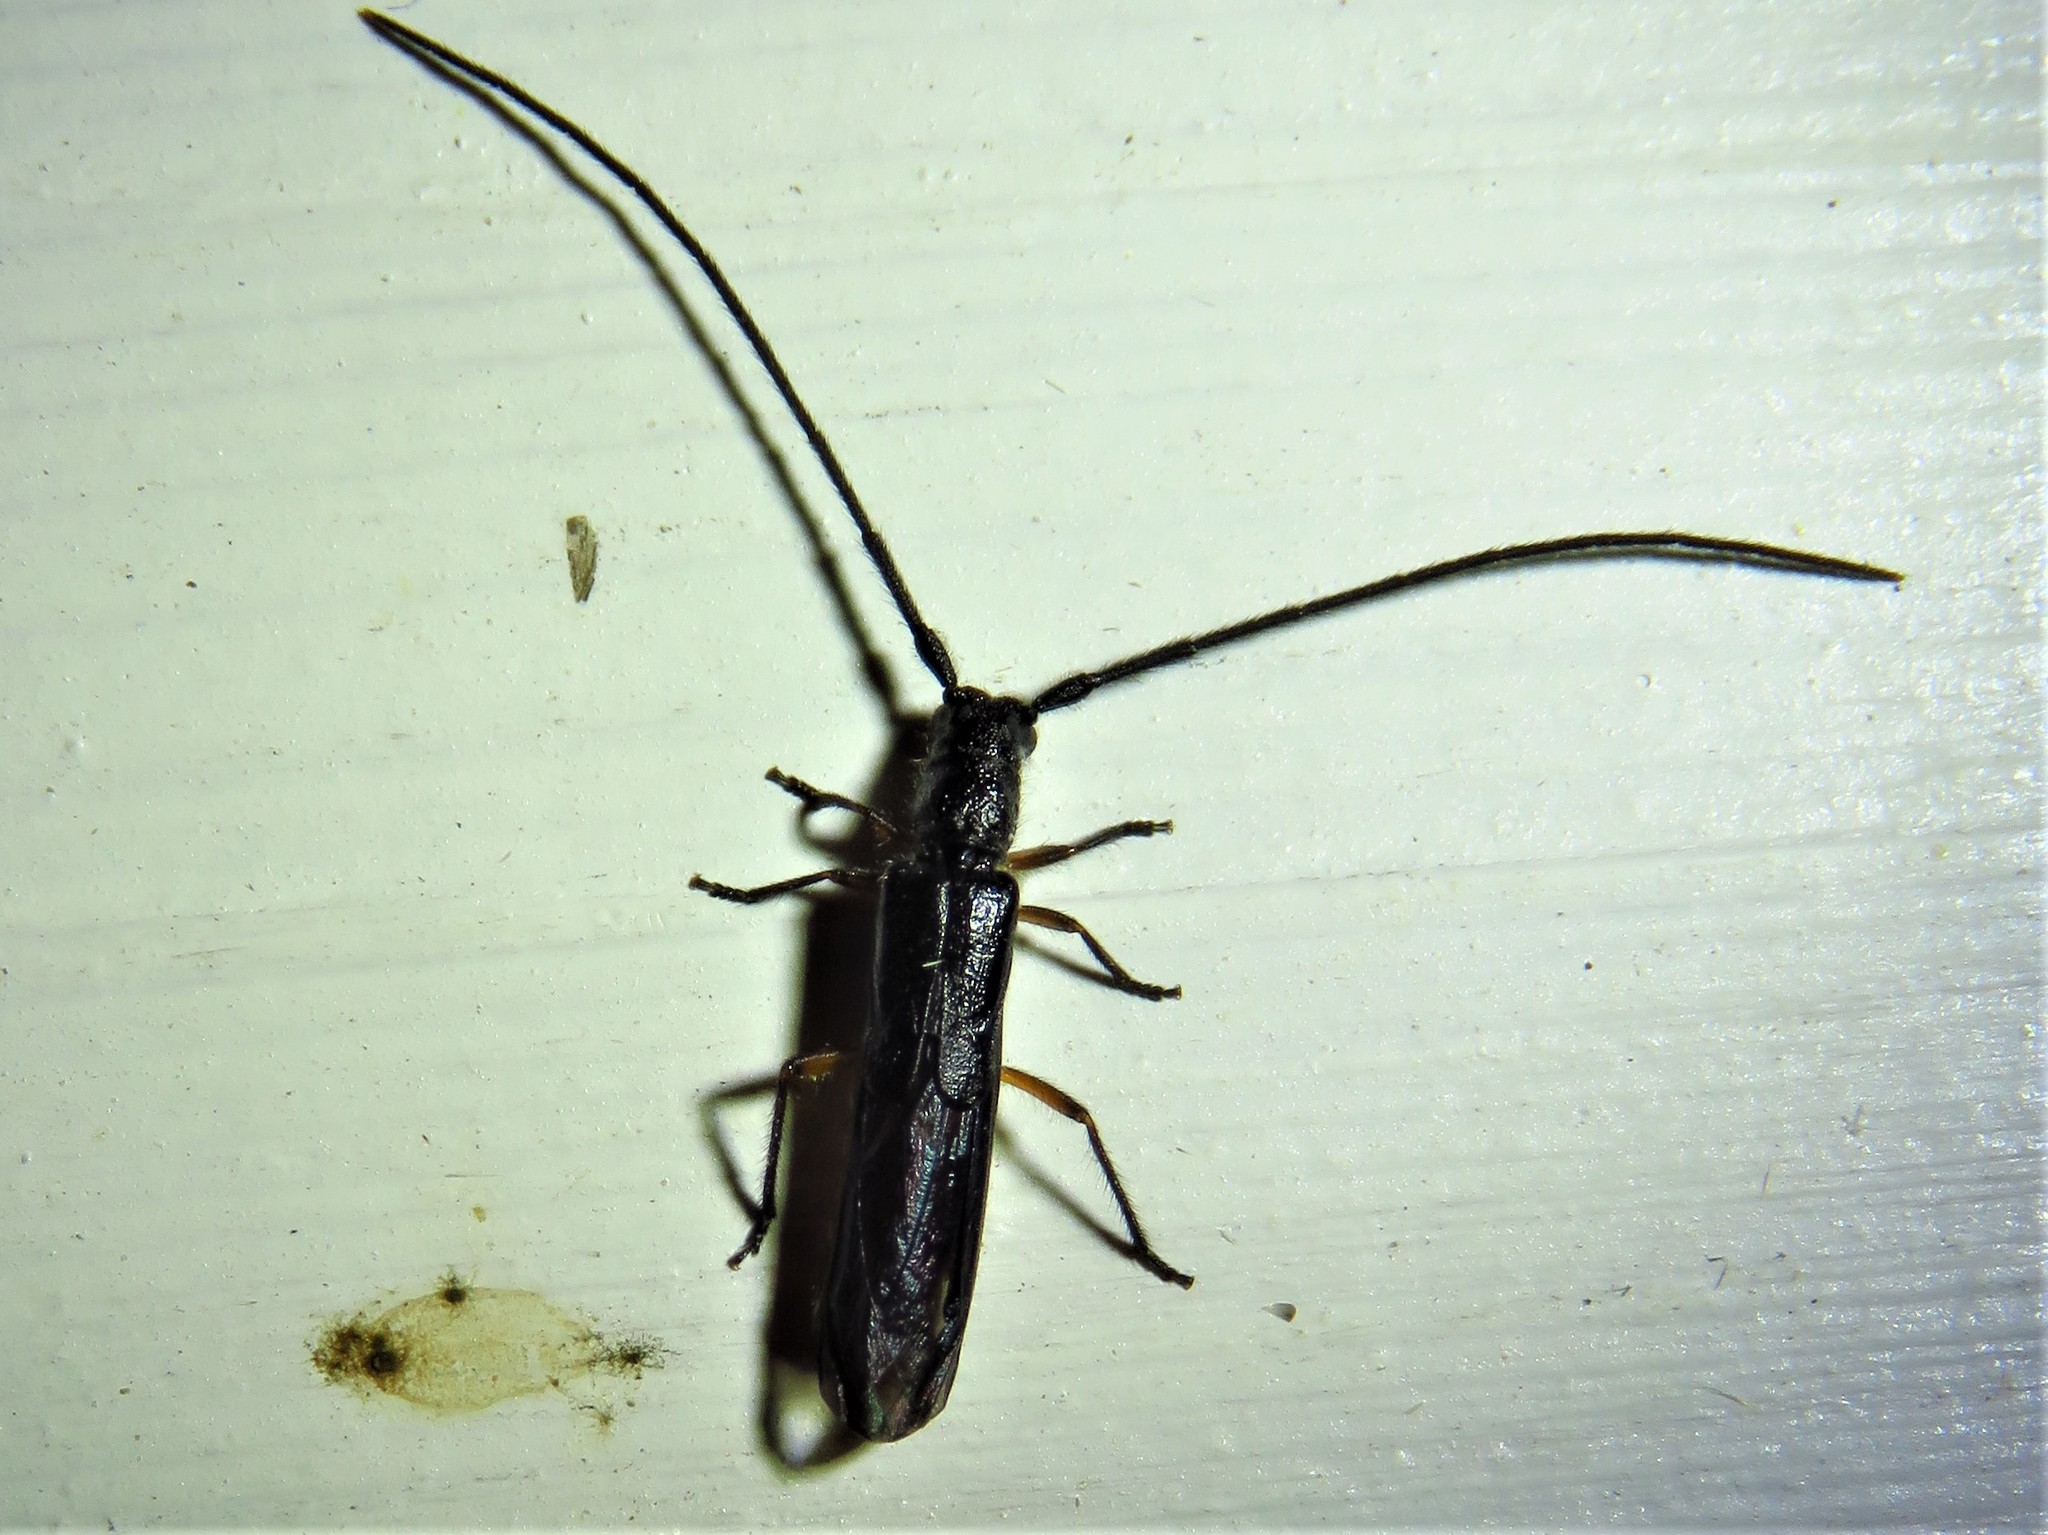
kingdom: Animalia
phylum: Arthropoda
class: Insecta
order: Coleoptera
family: Cerambycidae
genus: Methia
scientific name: Methia
